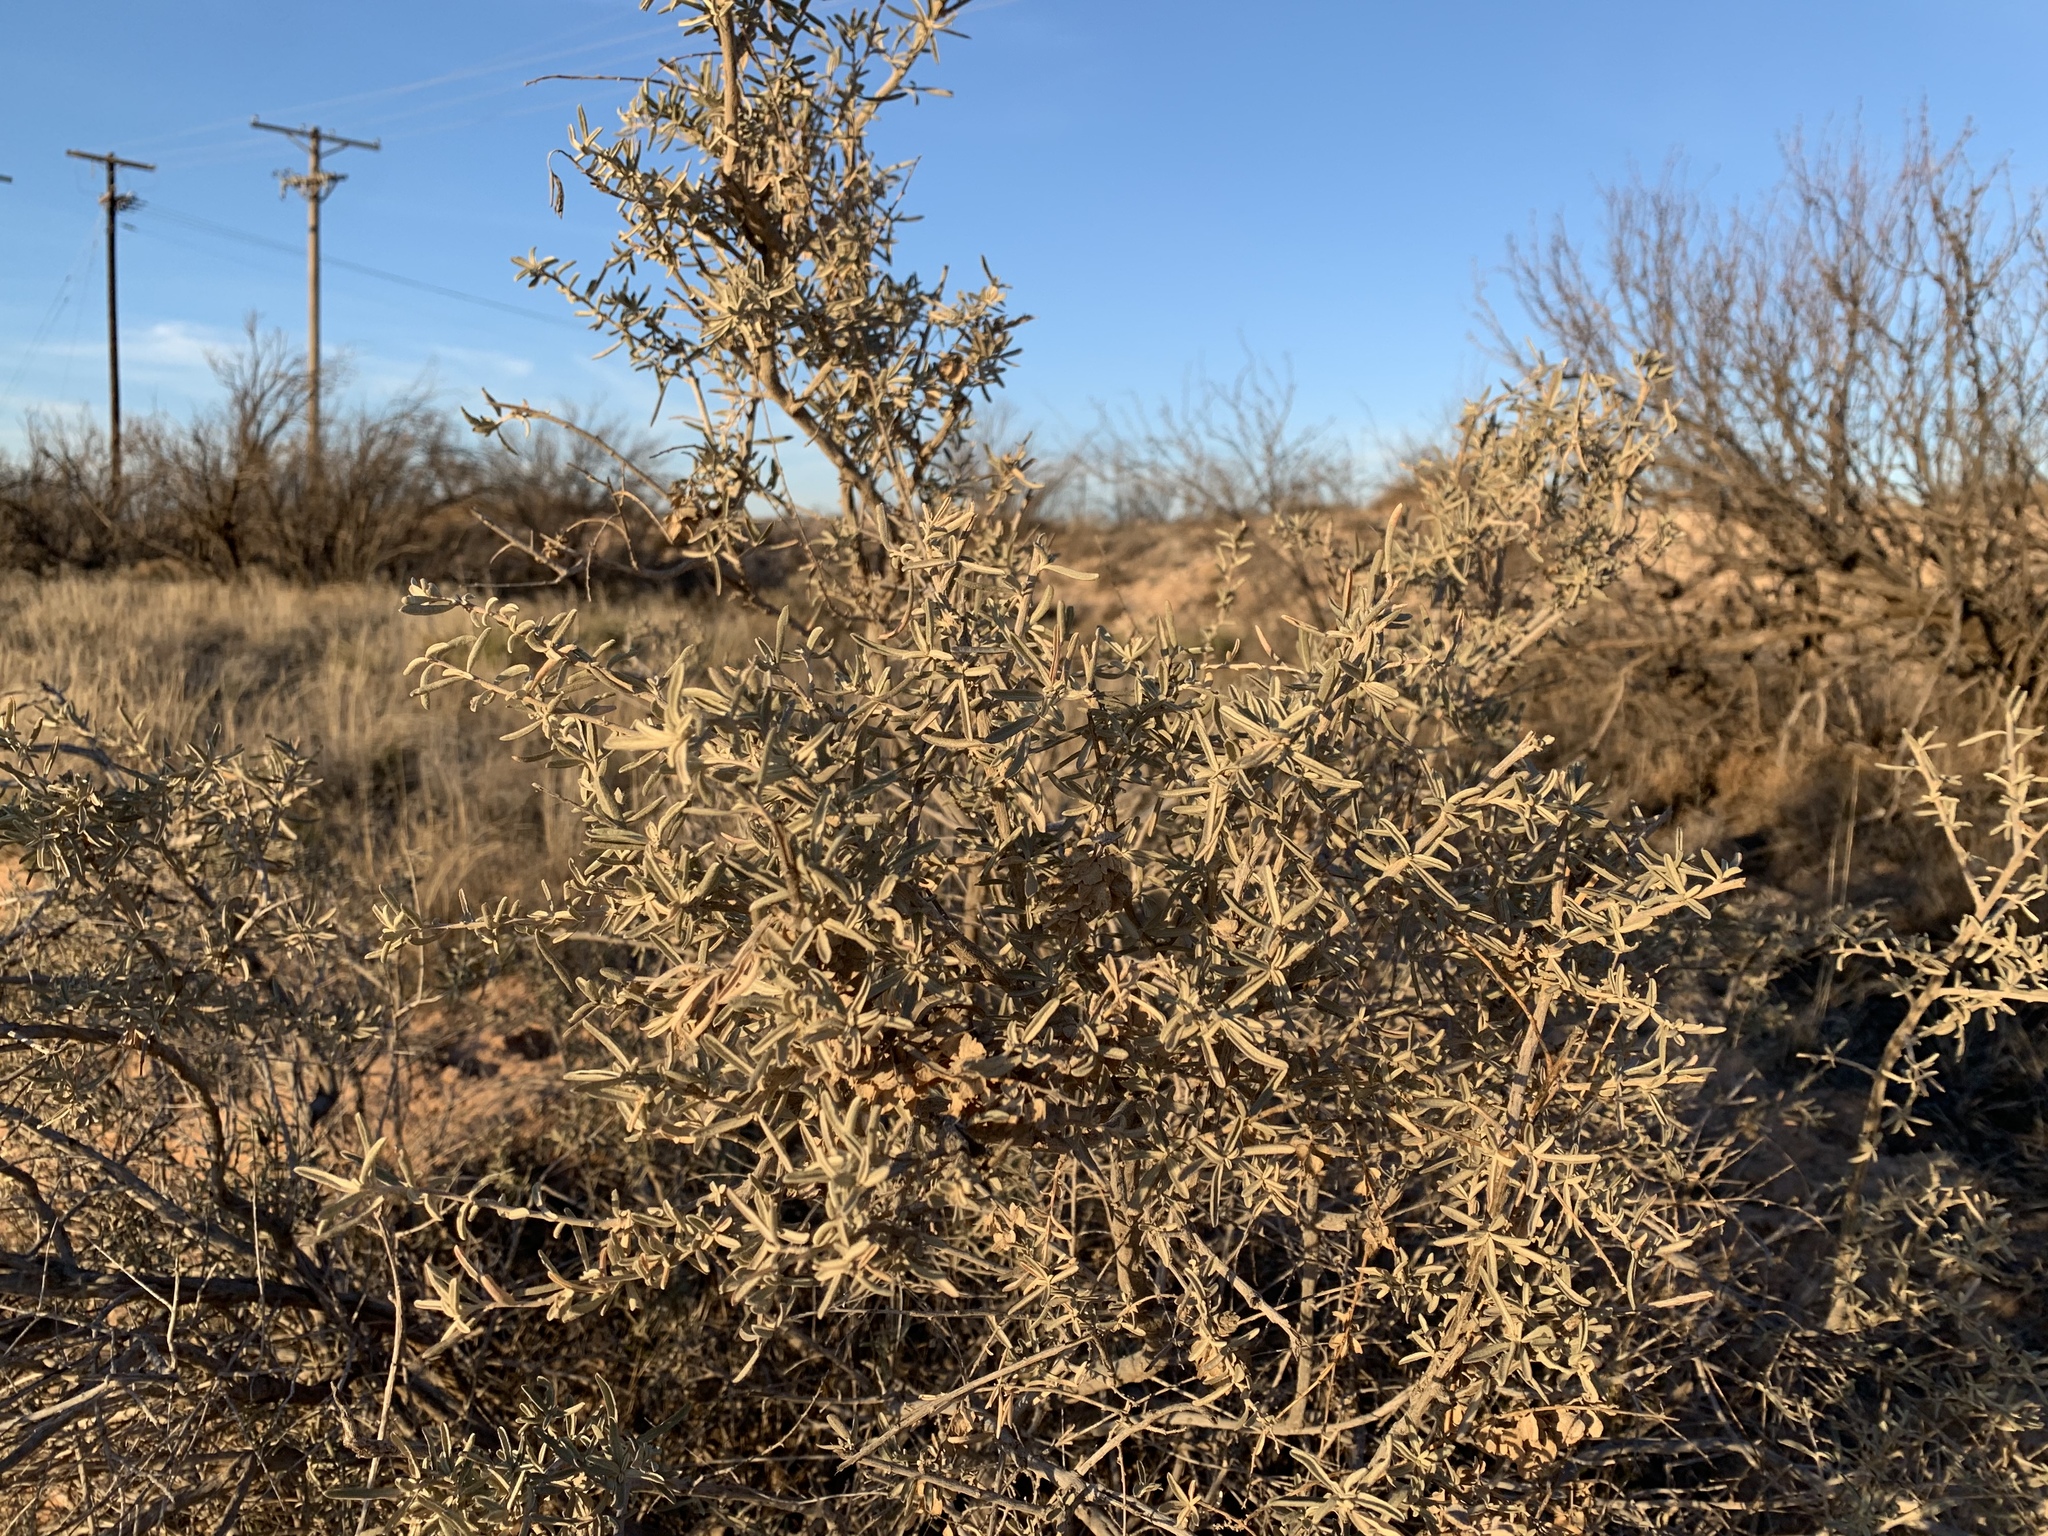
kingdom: Plantae
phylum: Tracheophyta
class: Magnoliopsida
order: Caryophyllales
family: Amaranthaceae
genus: Atriplex
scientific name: Atriplex canescens
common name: Four-wing saltbush
